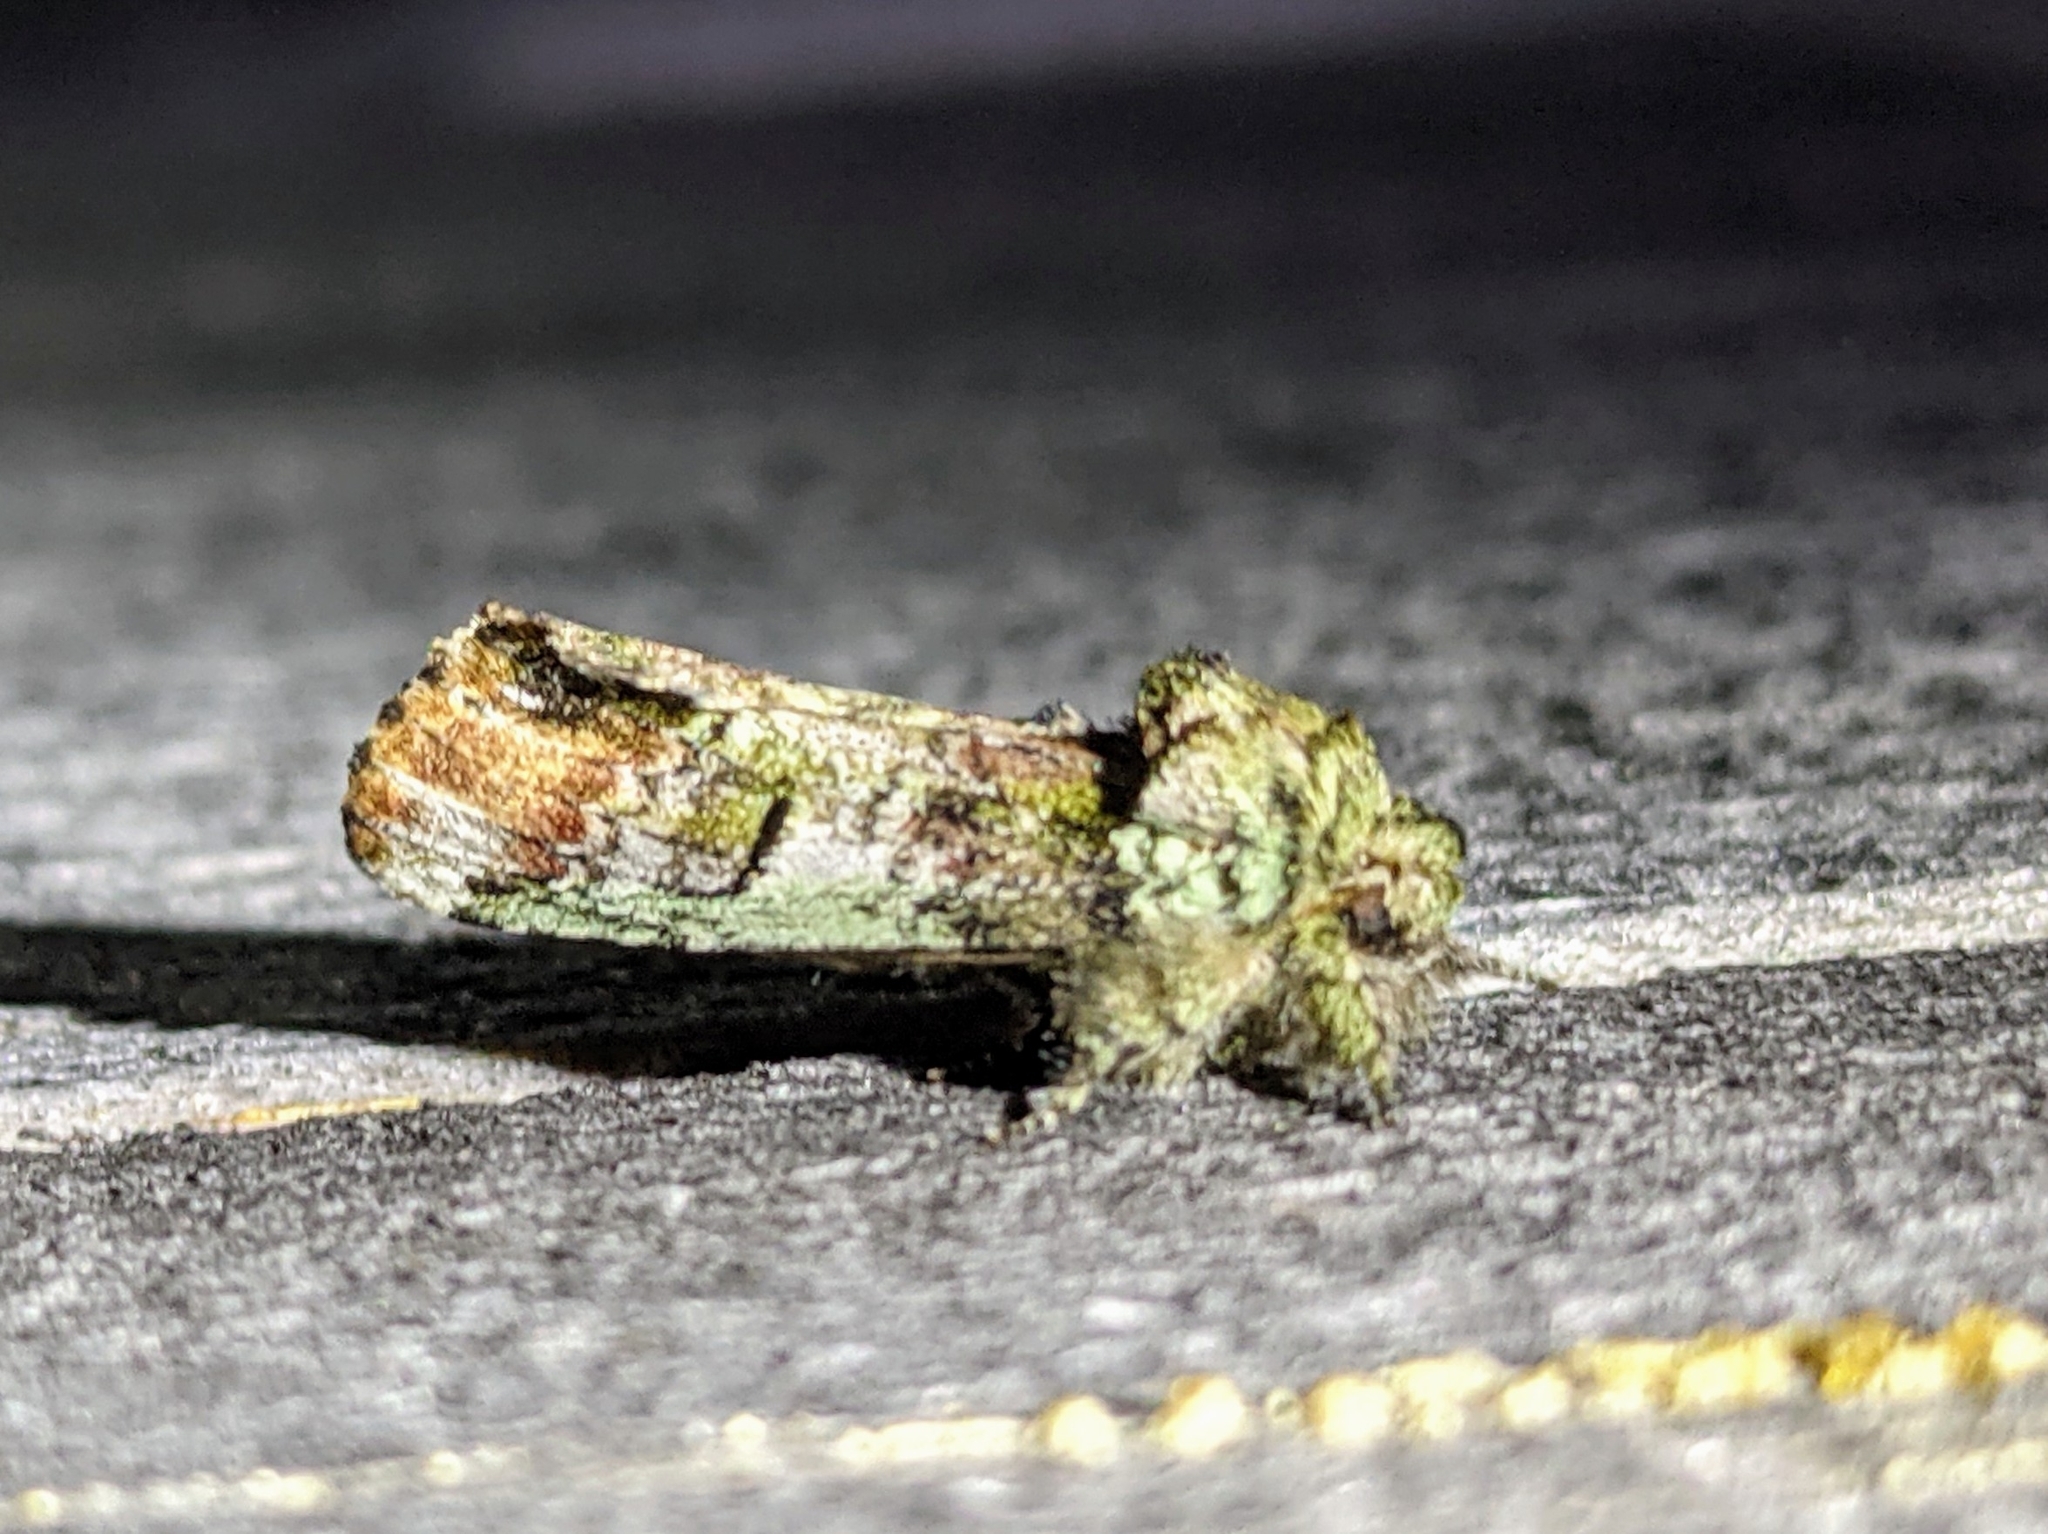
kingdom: Animalia
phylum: Arthropoda
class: Insecta
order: Lepidoptera
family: Notodontidae
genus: Schizura
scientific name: Schizura
